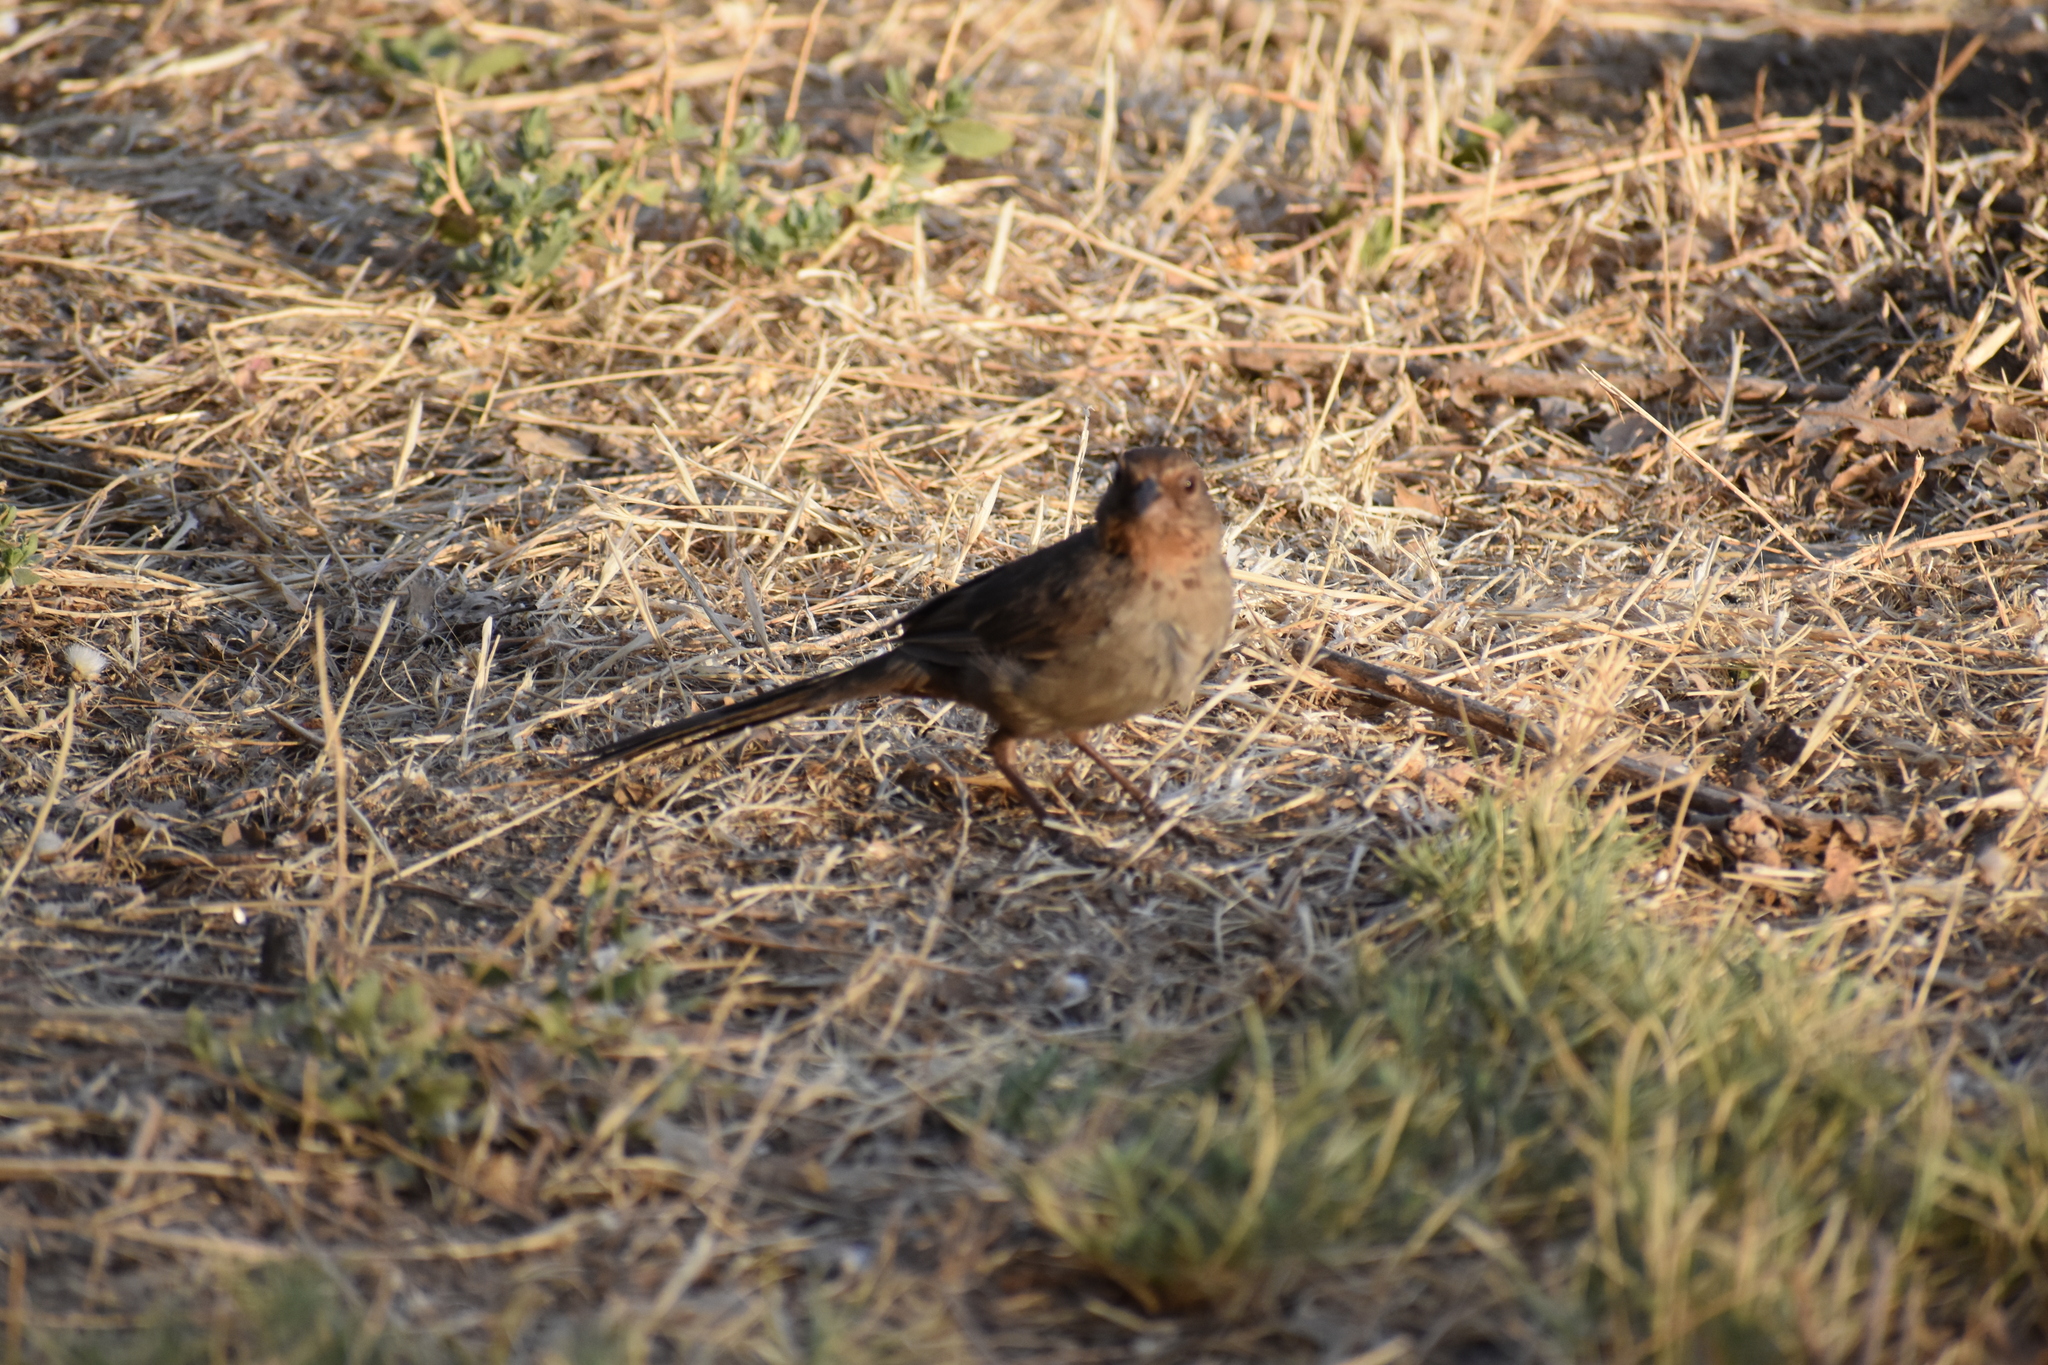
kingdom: Animalia
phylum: Chordata
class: Aves
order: Passeriformes
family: Passerellidae
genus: Melozone
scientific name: Melozone crissalis
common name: California towhee
